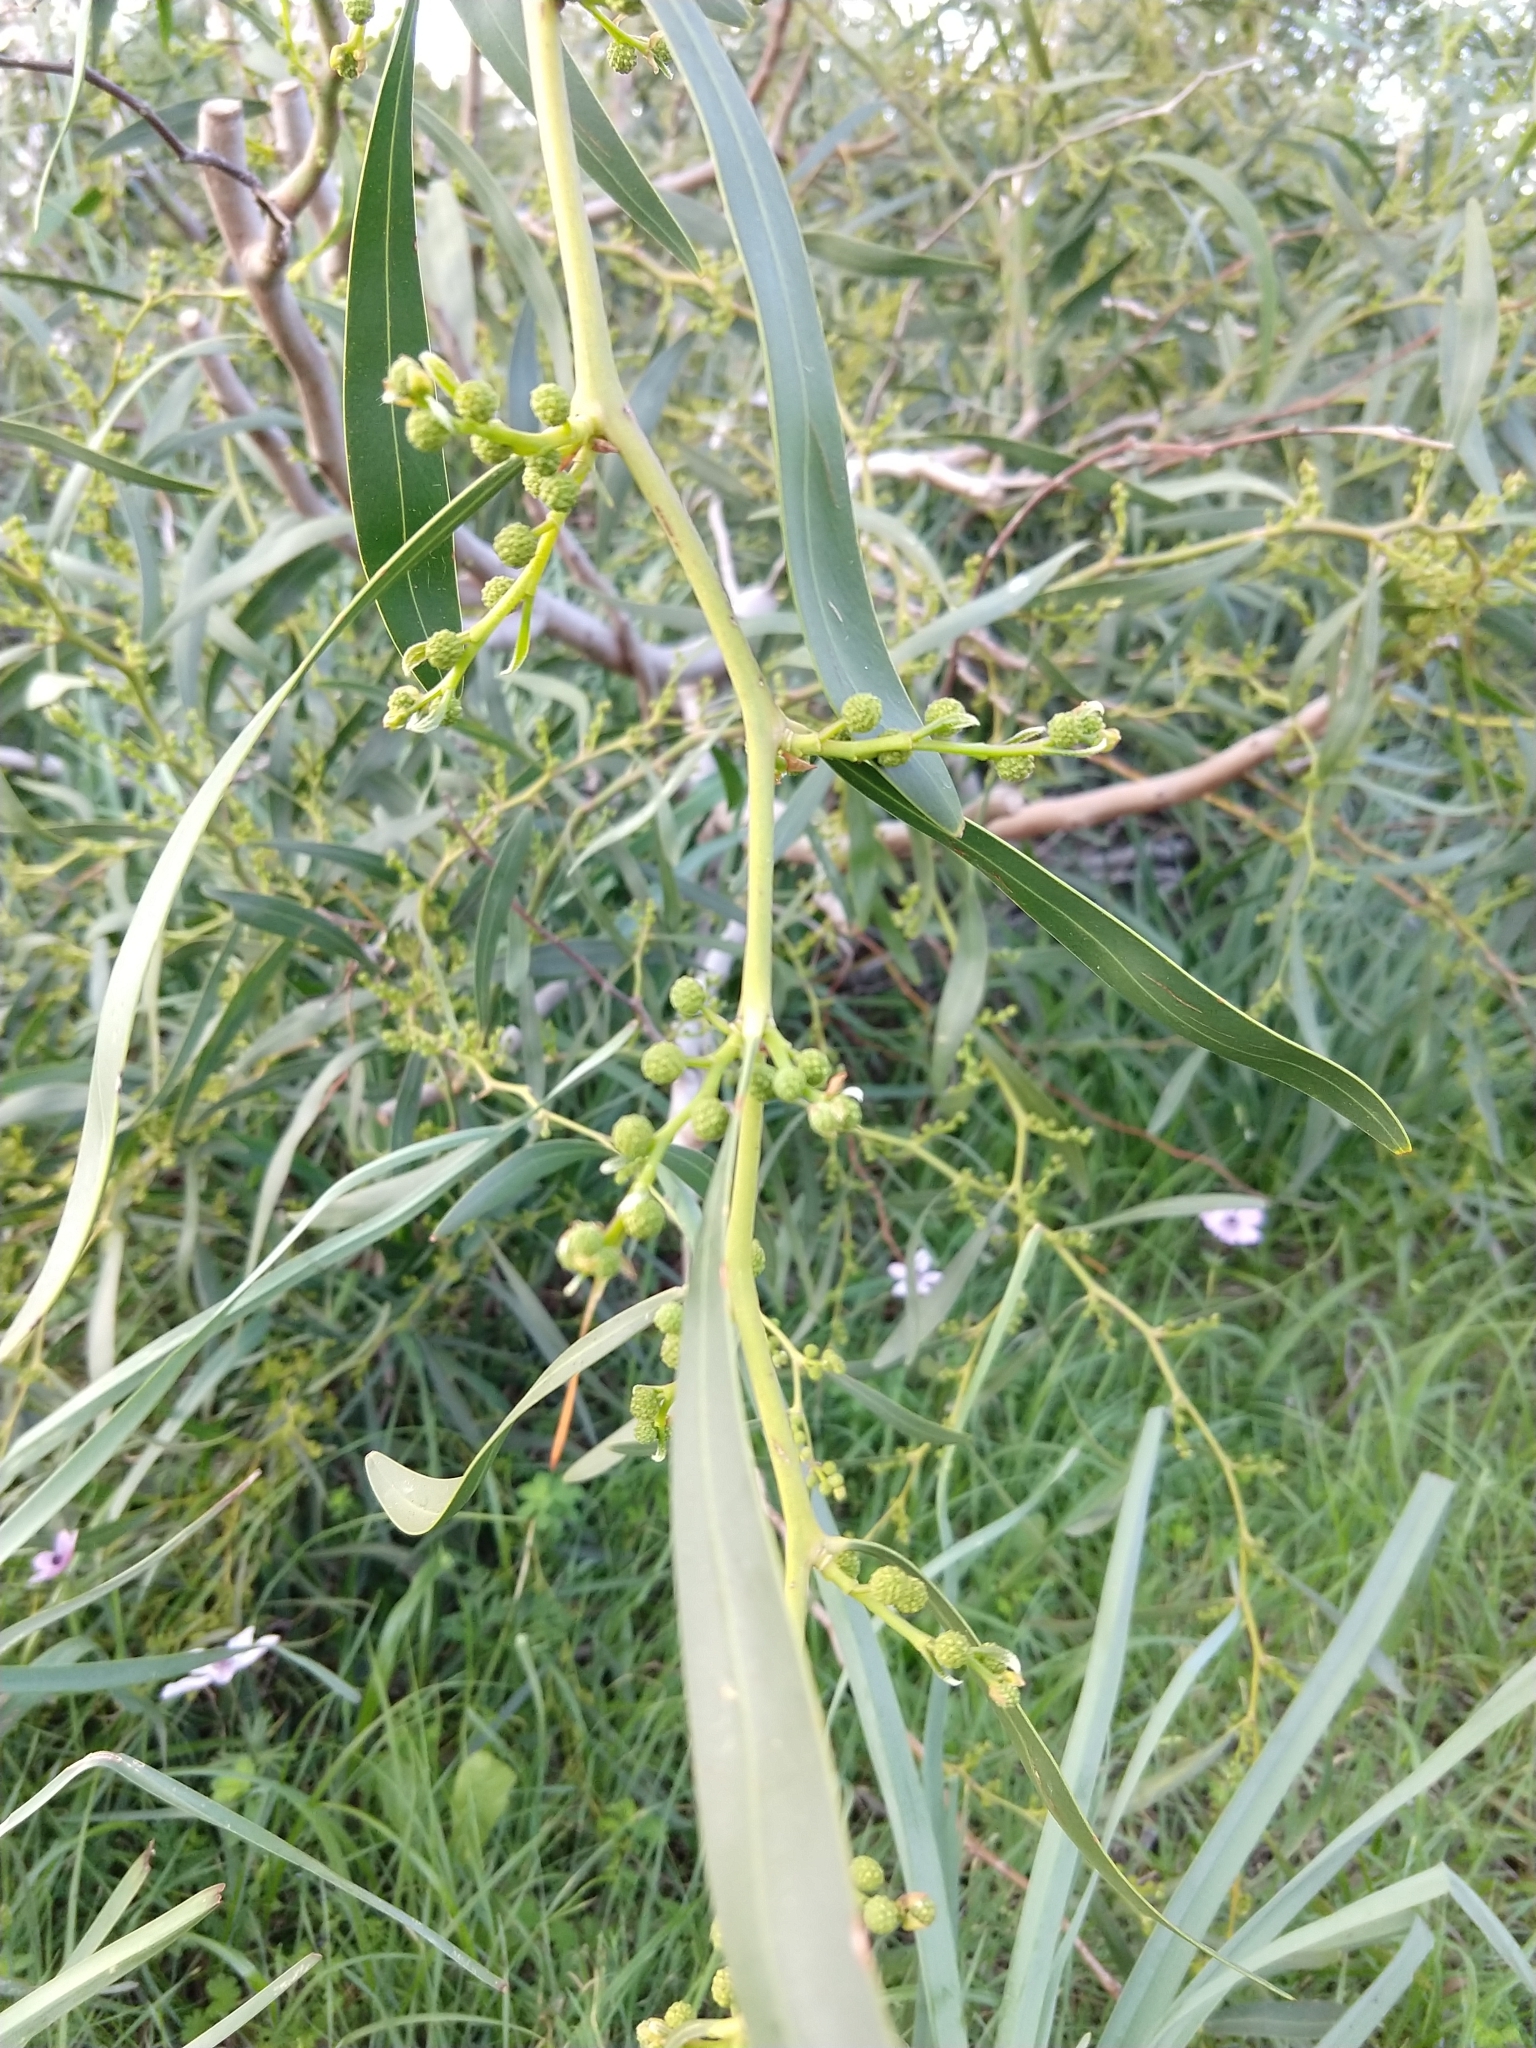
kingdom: Plantae
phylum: Tracheophyta
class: Magnoliopsida
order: Fabales
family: Fabaceae
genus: Acacia
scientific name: Acacia saligna
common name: Orange wattle
